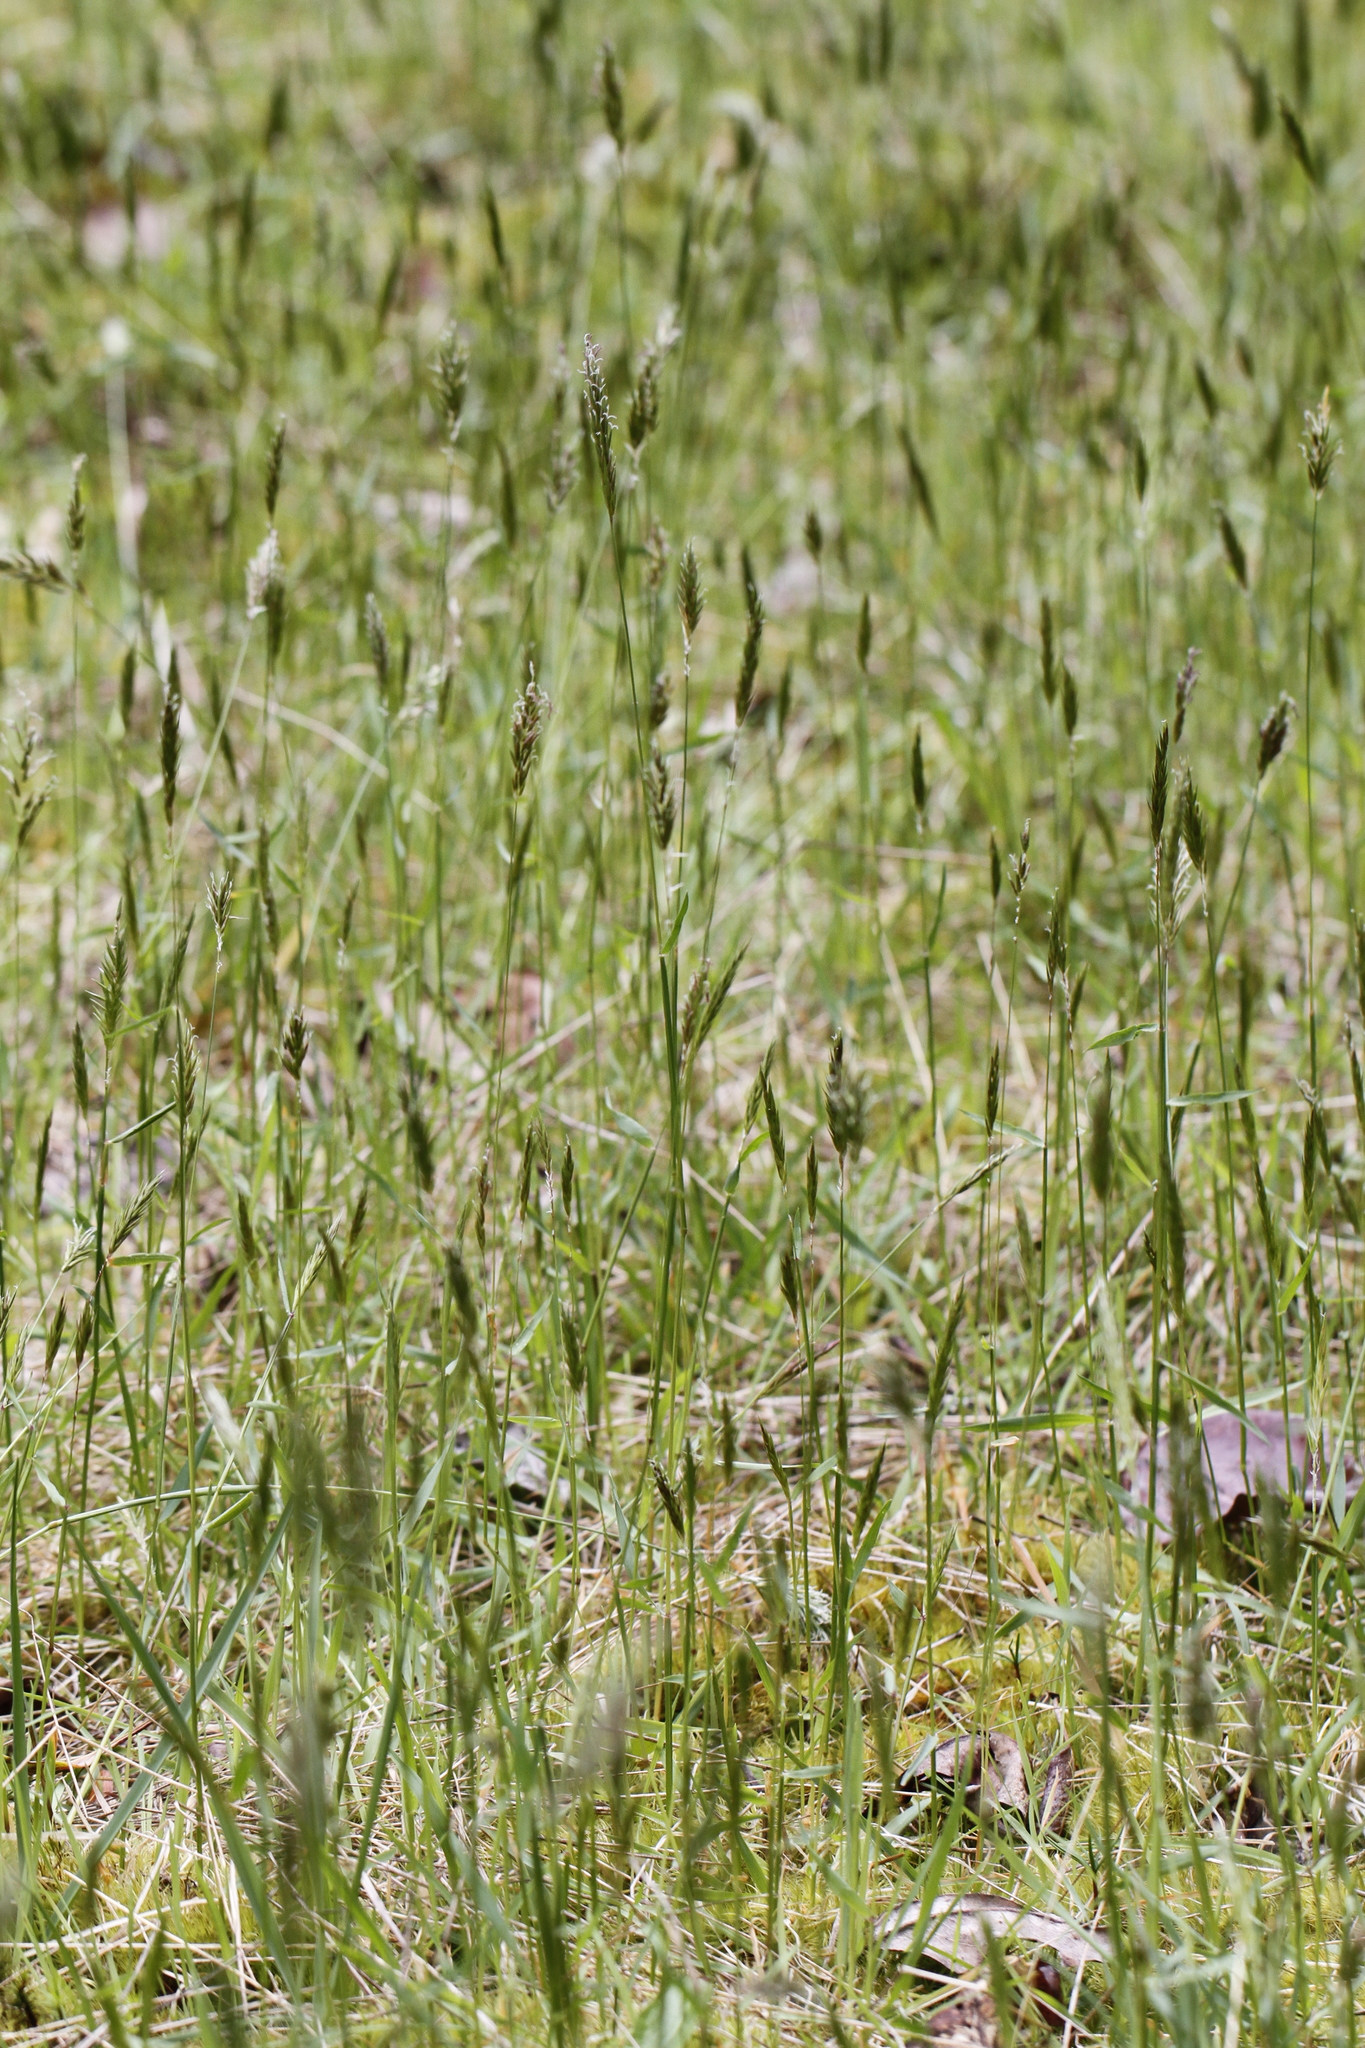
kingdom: Plantae
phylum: Tracheophyta
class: Liliopsida
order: Poales
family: Poaceae
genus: Anthoxanthum
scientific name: Anthoxanthum odoratum
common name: Sweet vernalgrass
